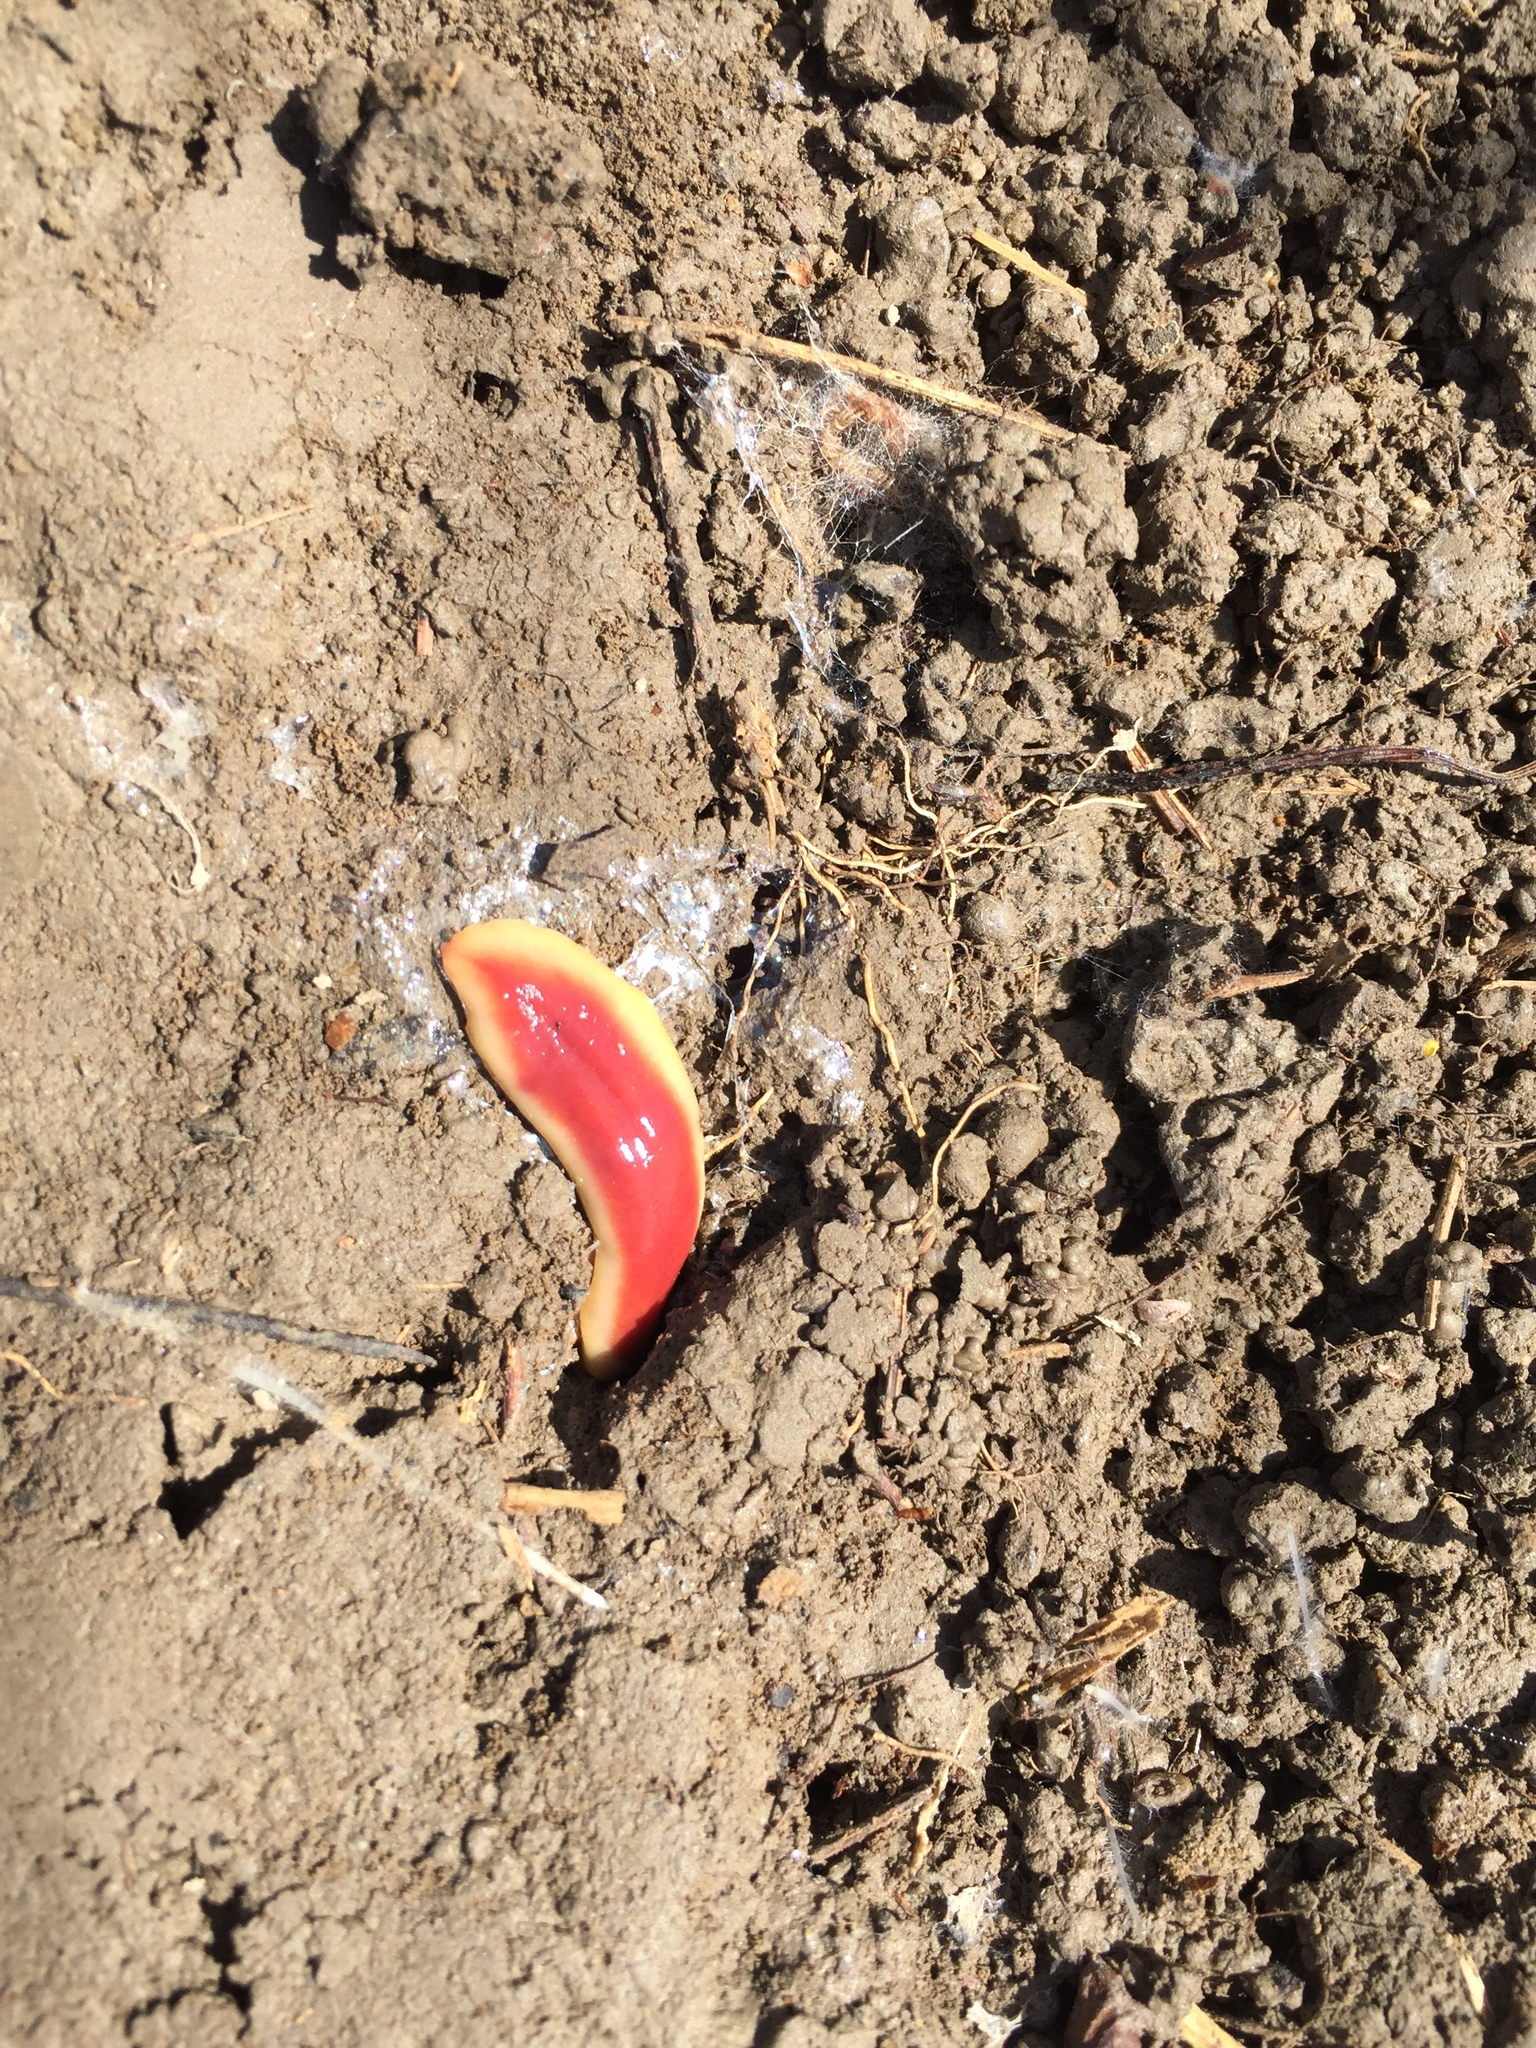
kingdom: Animalia
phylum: Platyhelminthes
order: Tricladida
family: Geoplanidae
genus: Arthurdendyus
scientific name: Arthurdendyus testaceus
